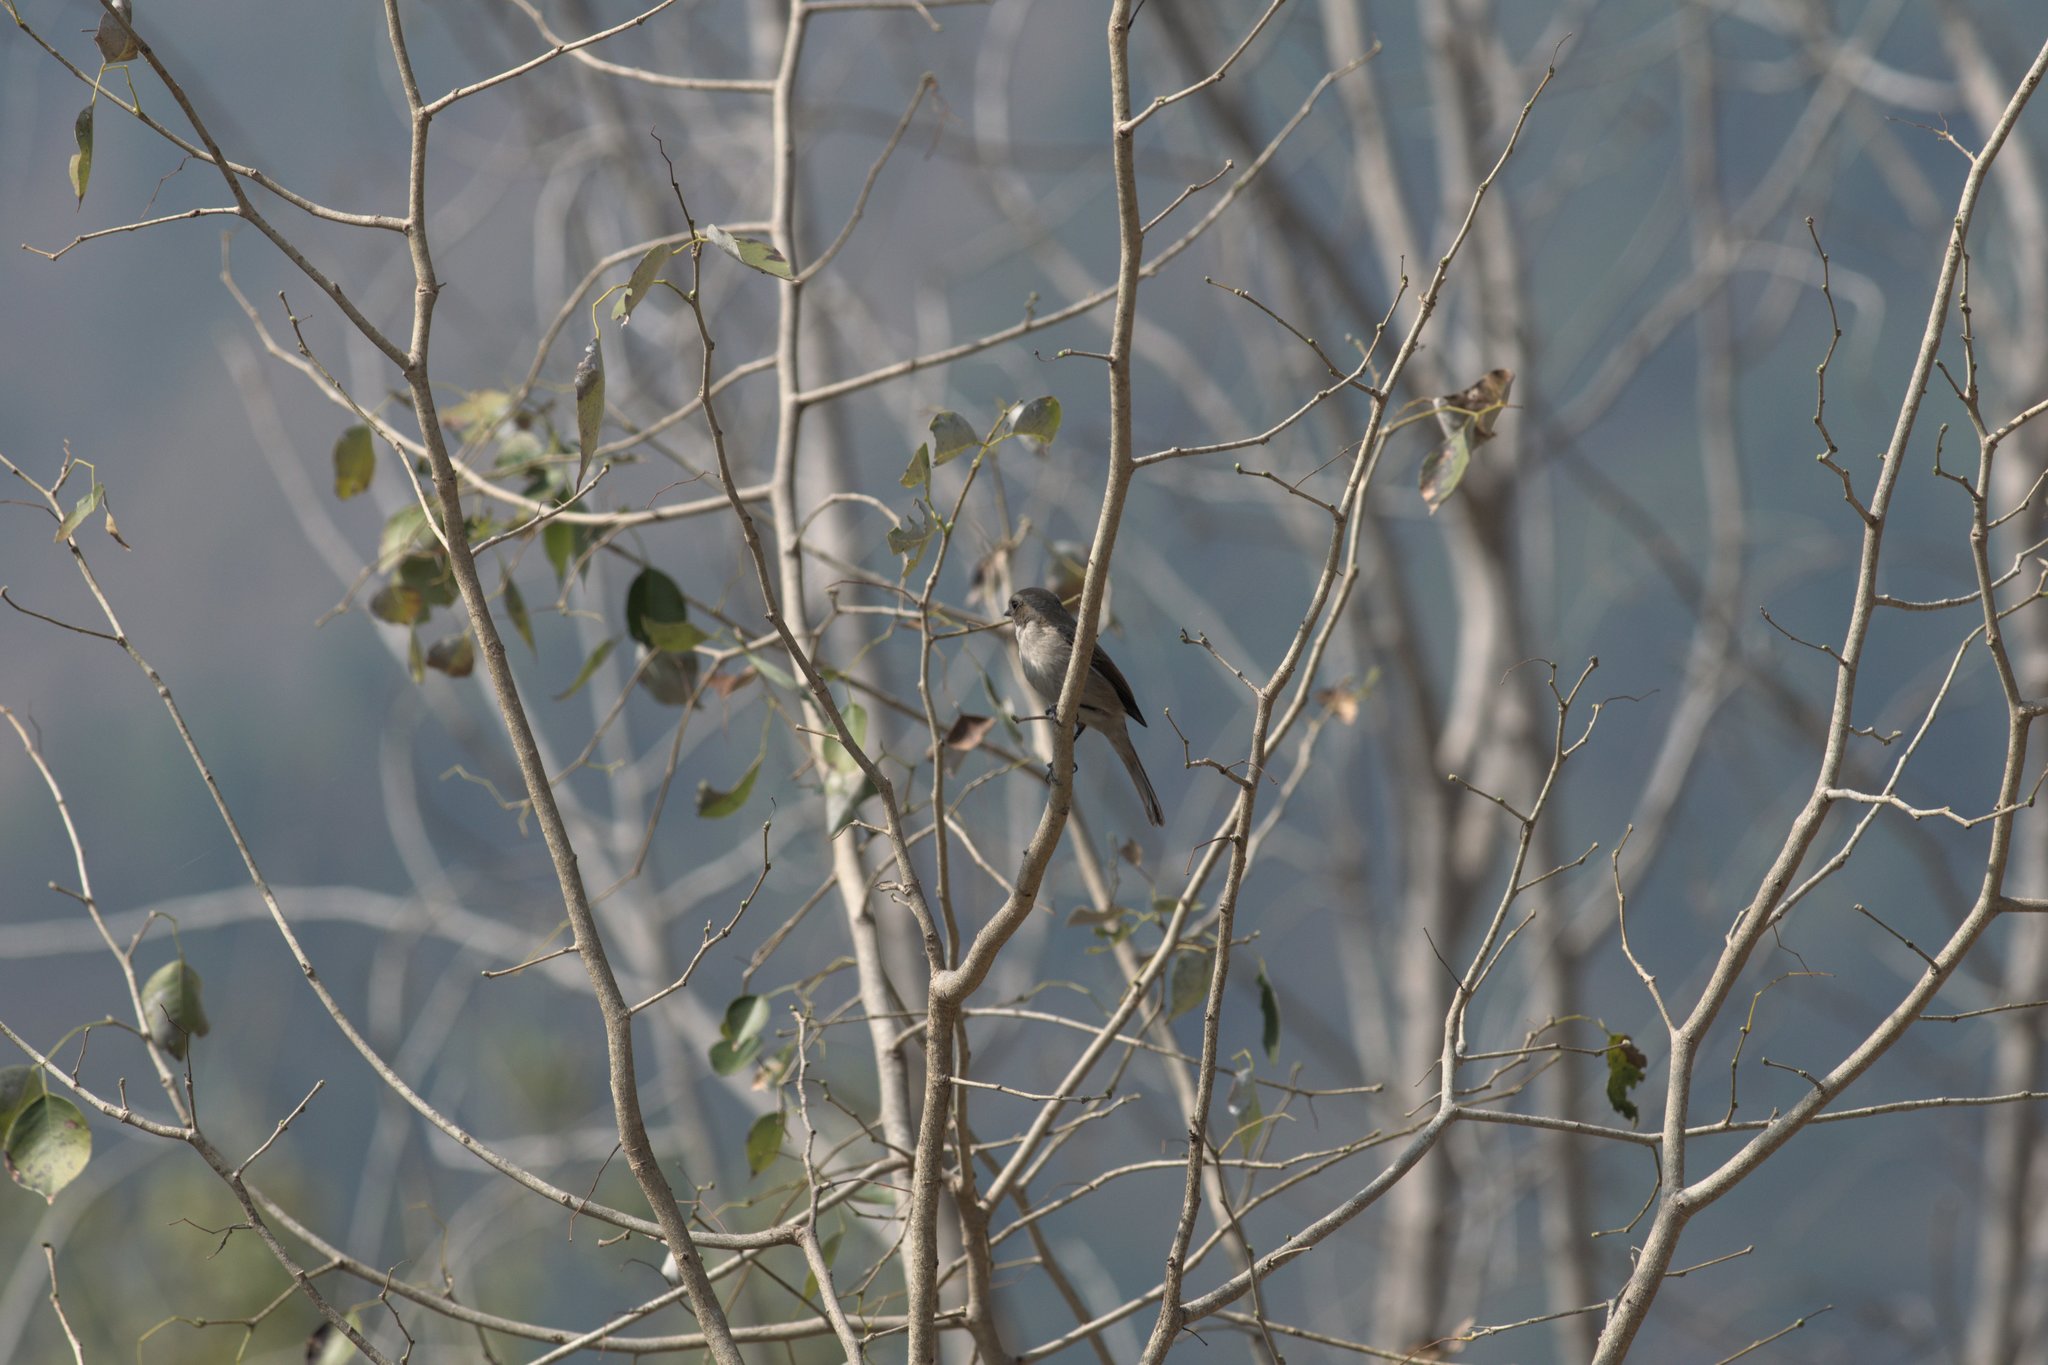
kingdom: Animalia
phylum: Chordata
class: Aves
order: Passeriformes
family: Muscicapidae
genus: Saxicola
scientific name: Saxicola ferreus
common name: Grey bush chat
